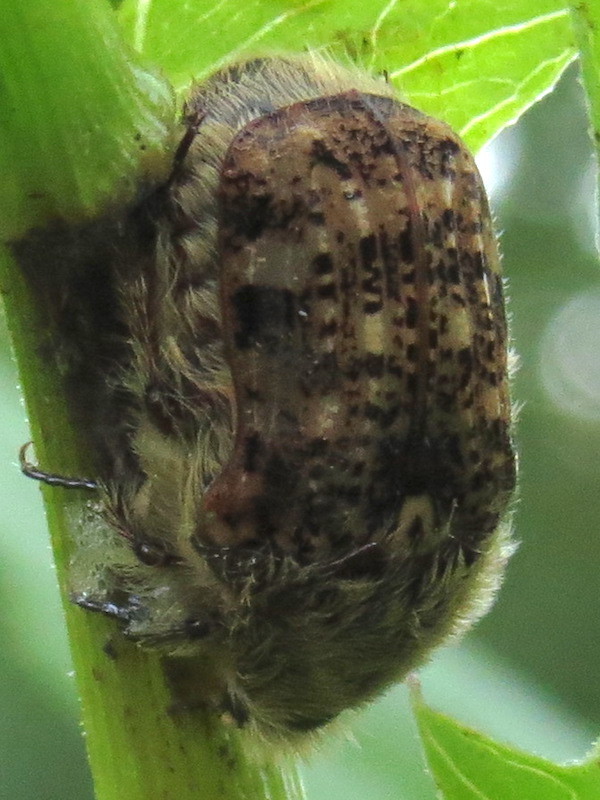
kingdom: Animalia
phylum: Arthropoda
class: Insecta
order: Coleoptera
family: Scarabaeidae
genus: Euphoria
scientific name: Euphoria inda
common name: Bumble flower beetle
